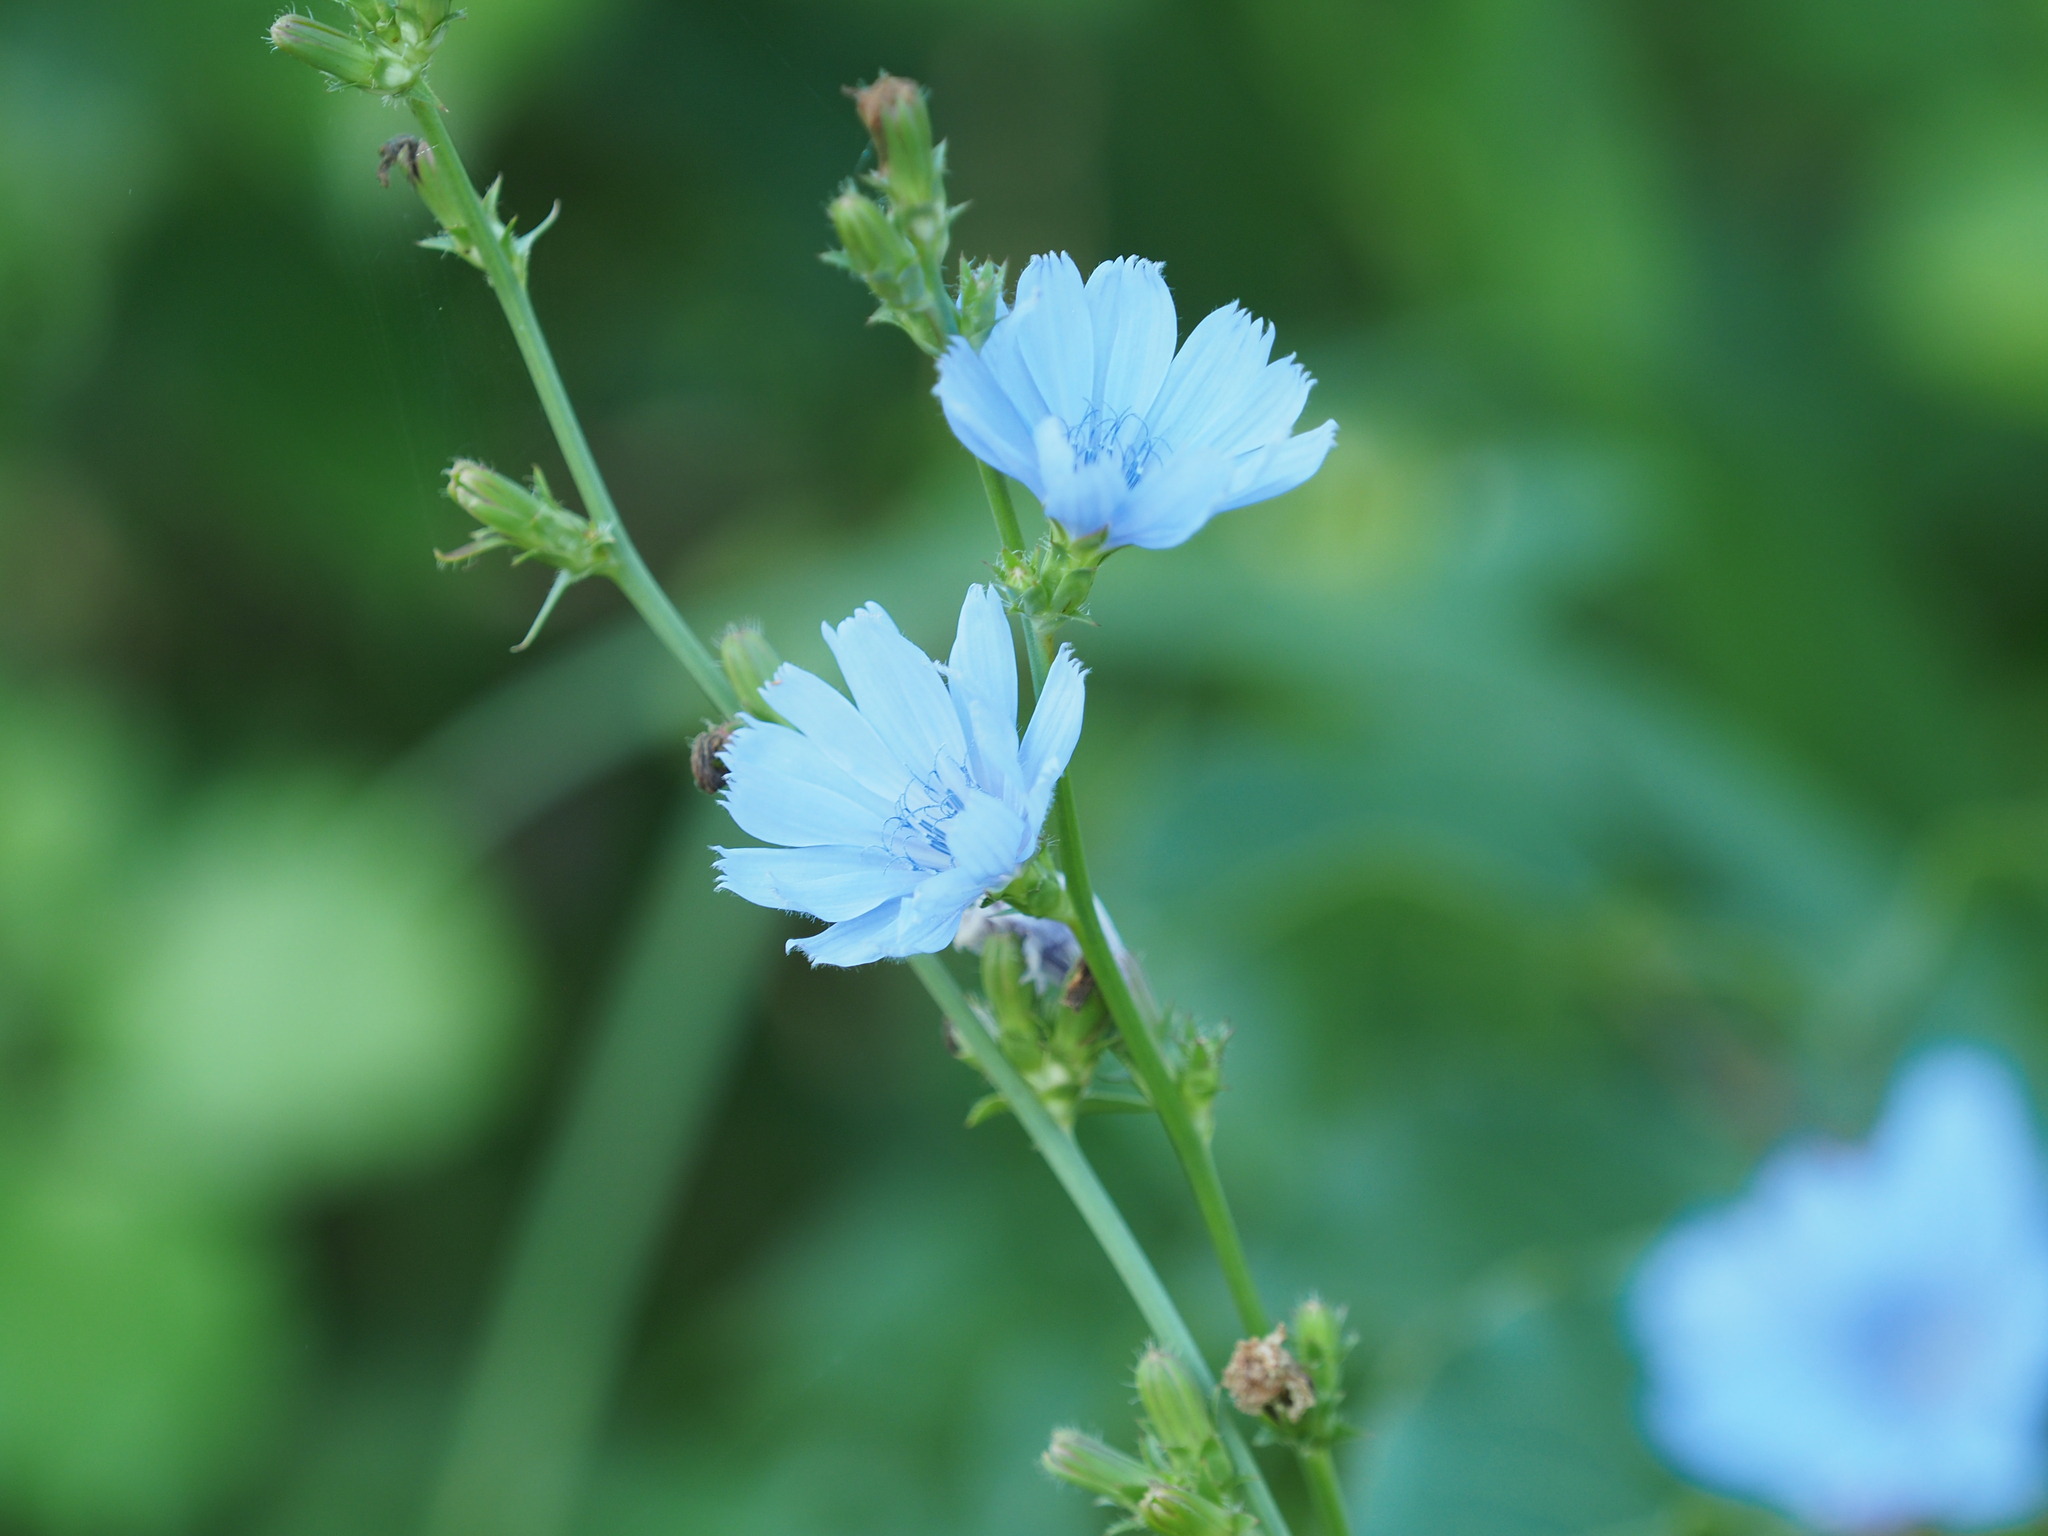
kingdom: Plantae
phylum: Tracheophyta
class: Magnoliopsida
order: Asterales
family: Asteraceae
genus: Cichorium
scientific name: Cichorium intybus
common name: Chicory
